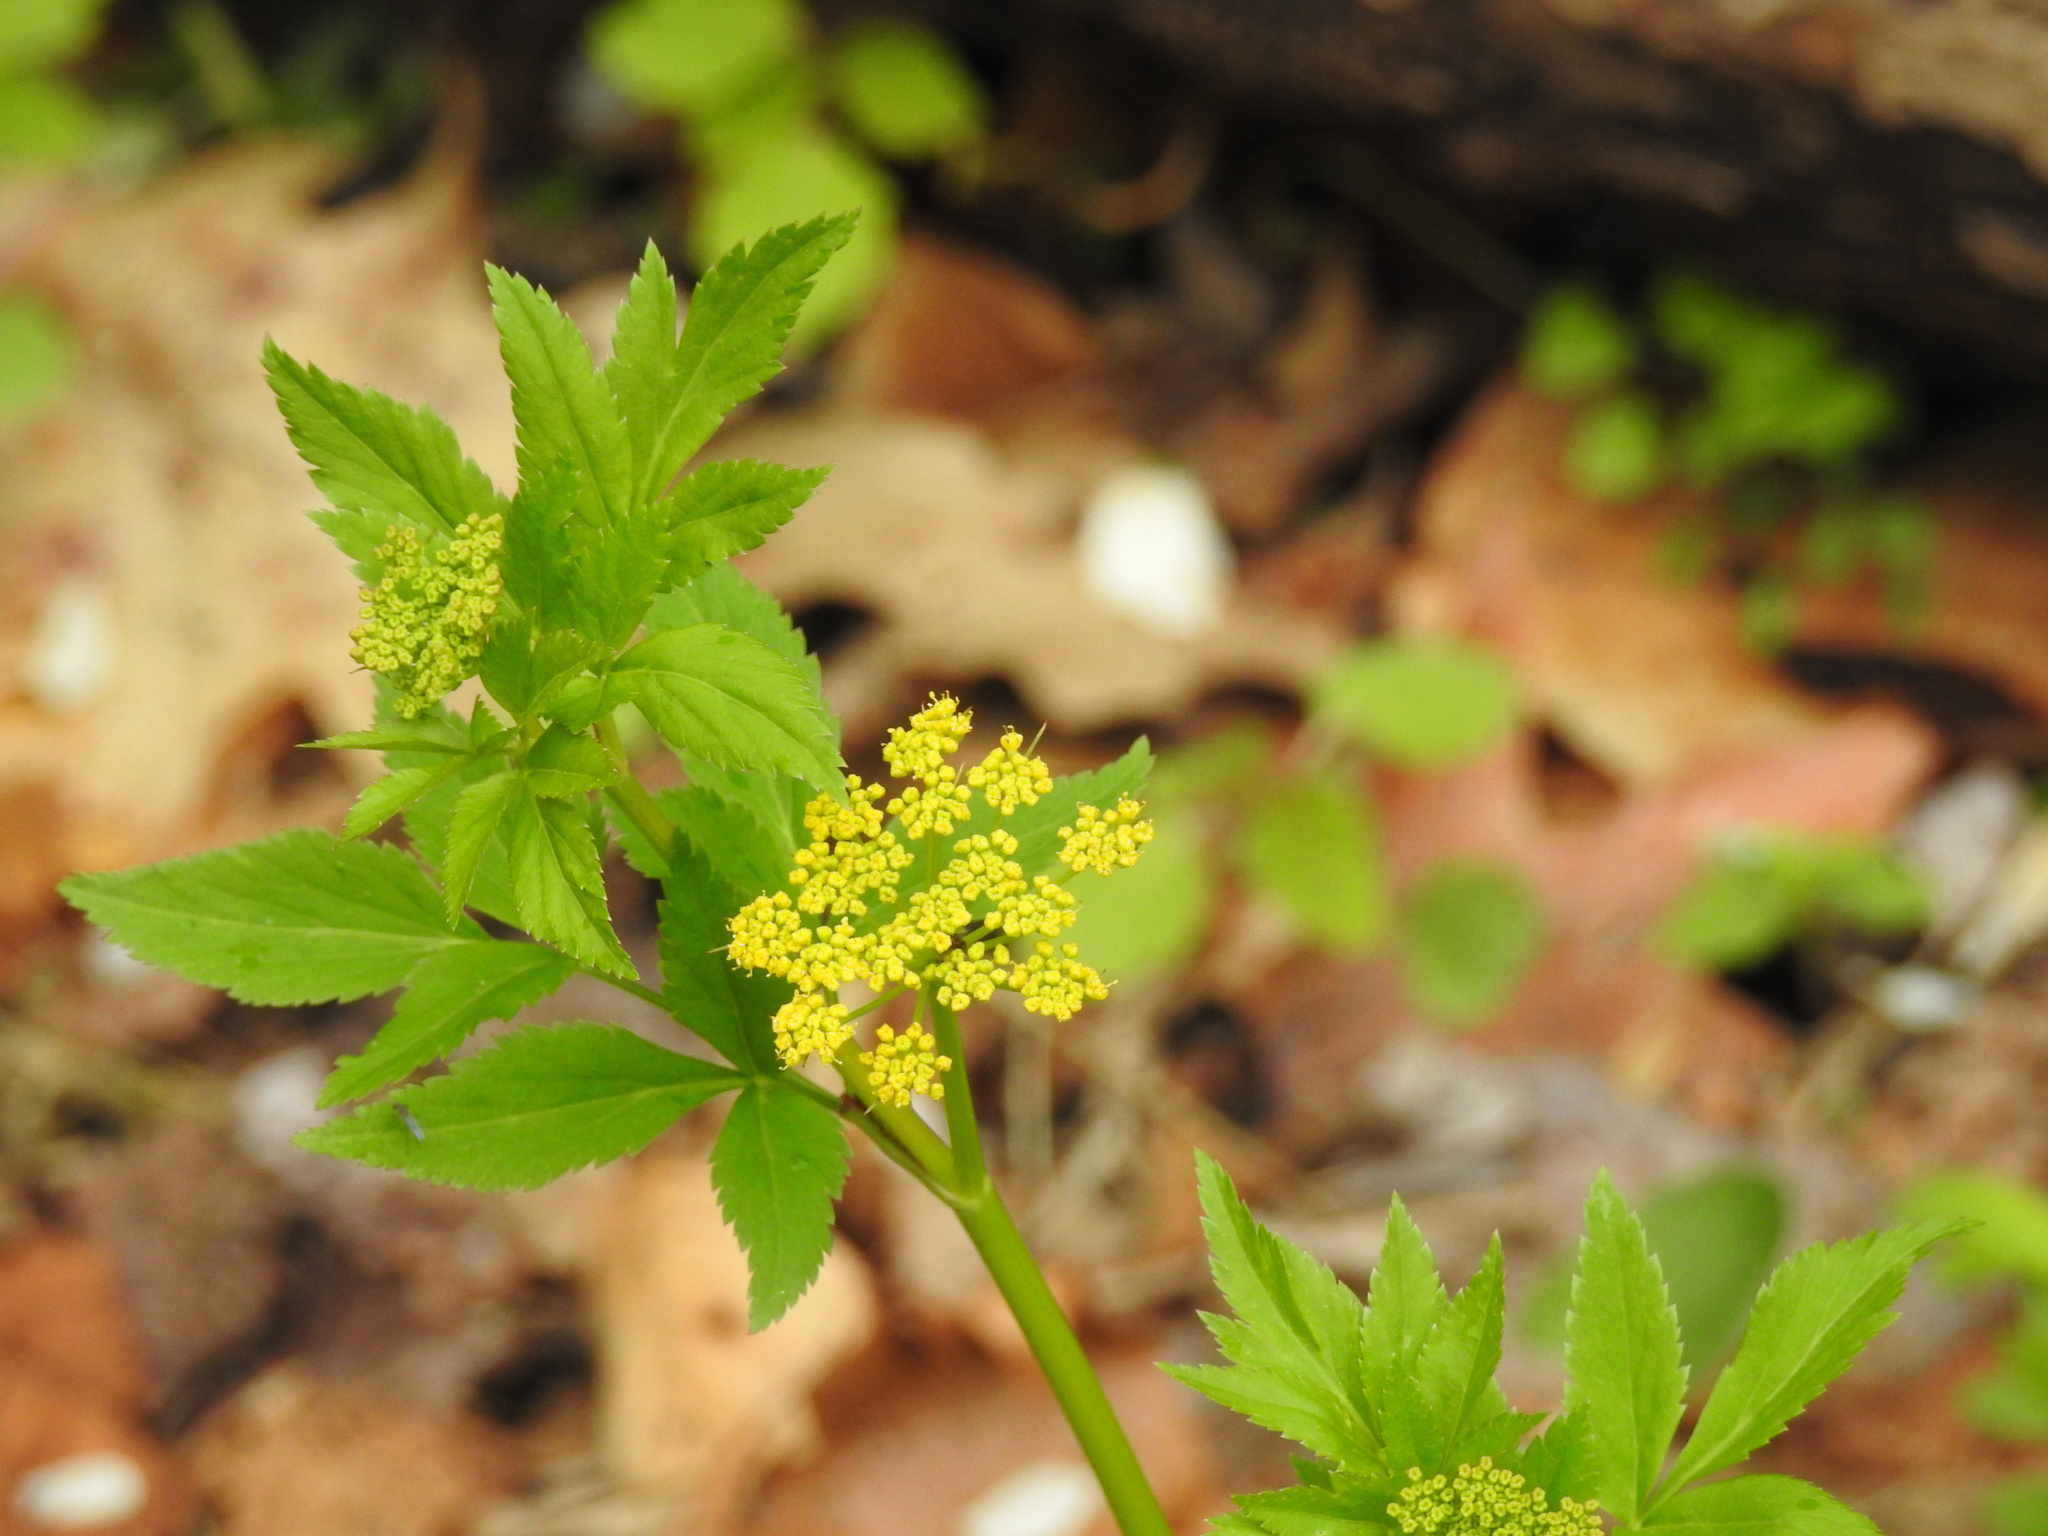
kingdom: Plantae
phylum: Tracheophyta
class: Magnoliopsida
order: Apiales
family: Apiaceae
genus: Zizia
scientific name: Zizia aurea
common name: Golden alexanders
